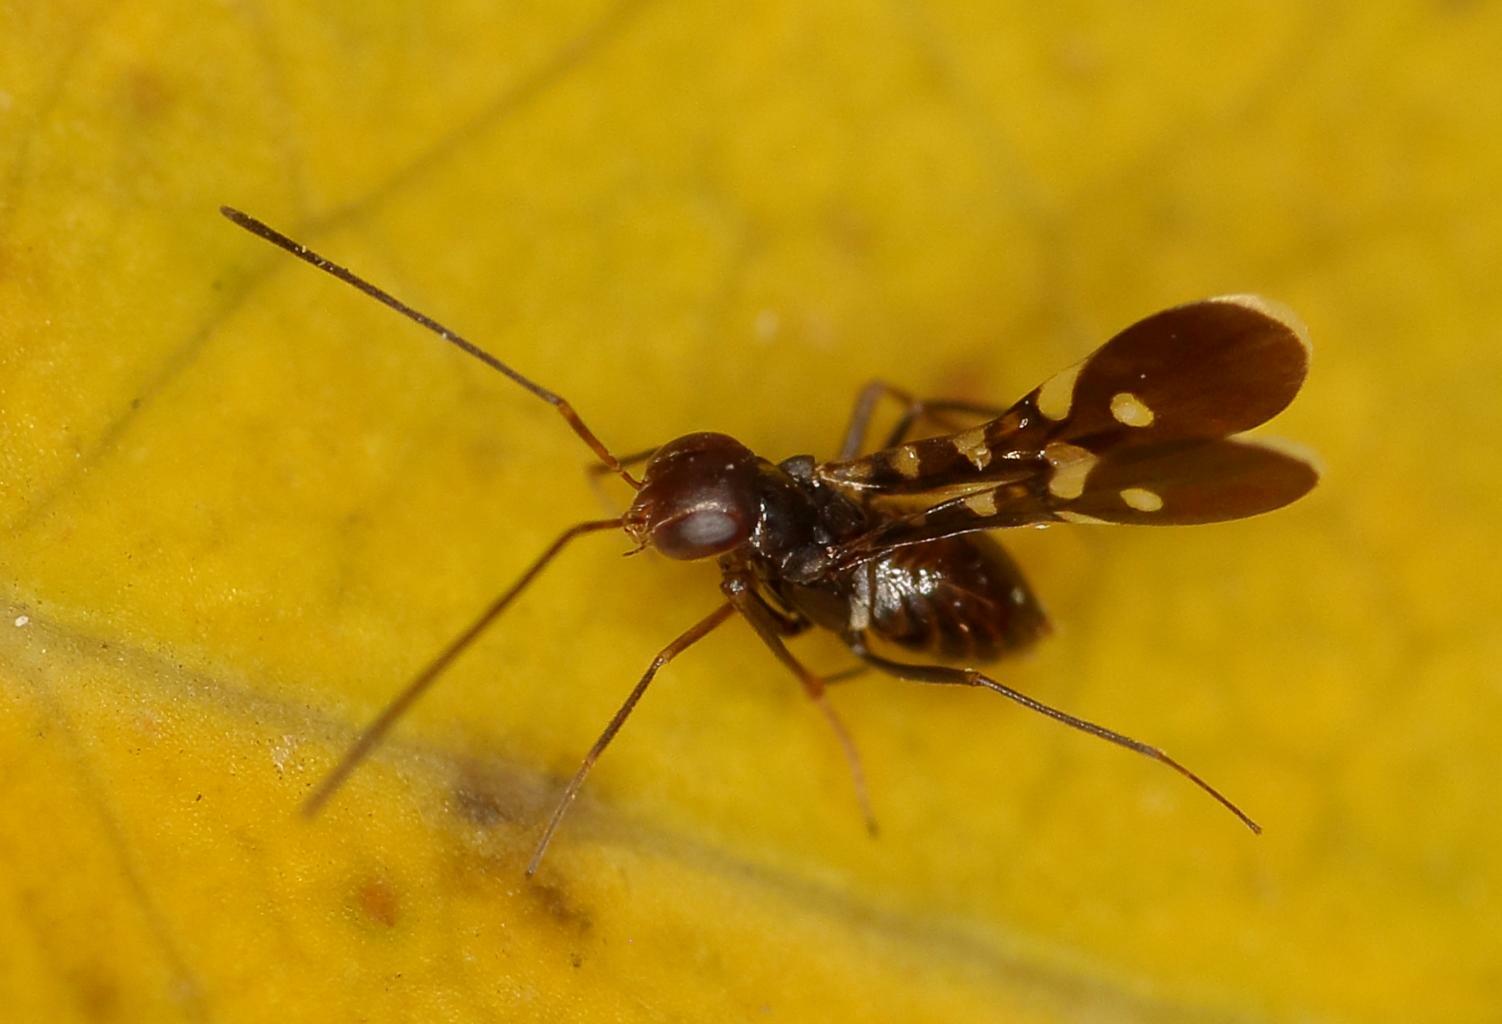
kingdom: Animalia
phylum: Arthropoda
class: Insecta
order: Hymenoptera
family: Encyrtidae
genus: Callipteroma
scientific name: Callipteroma sexguttata
